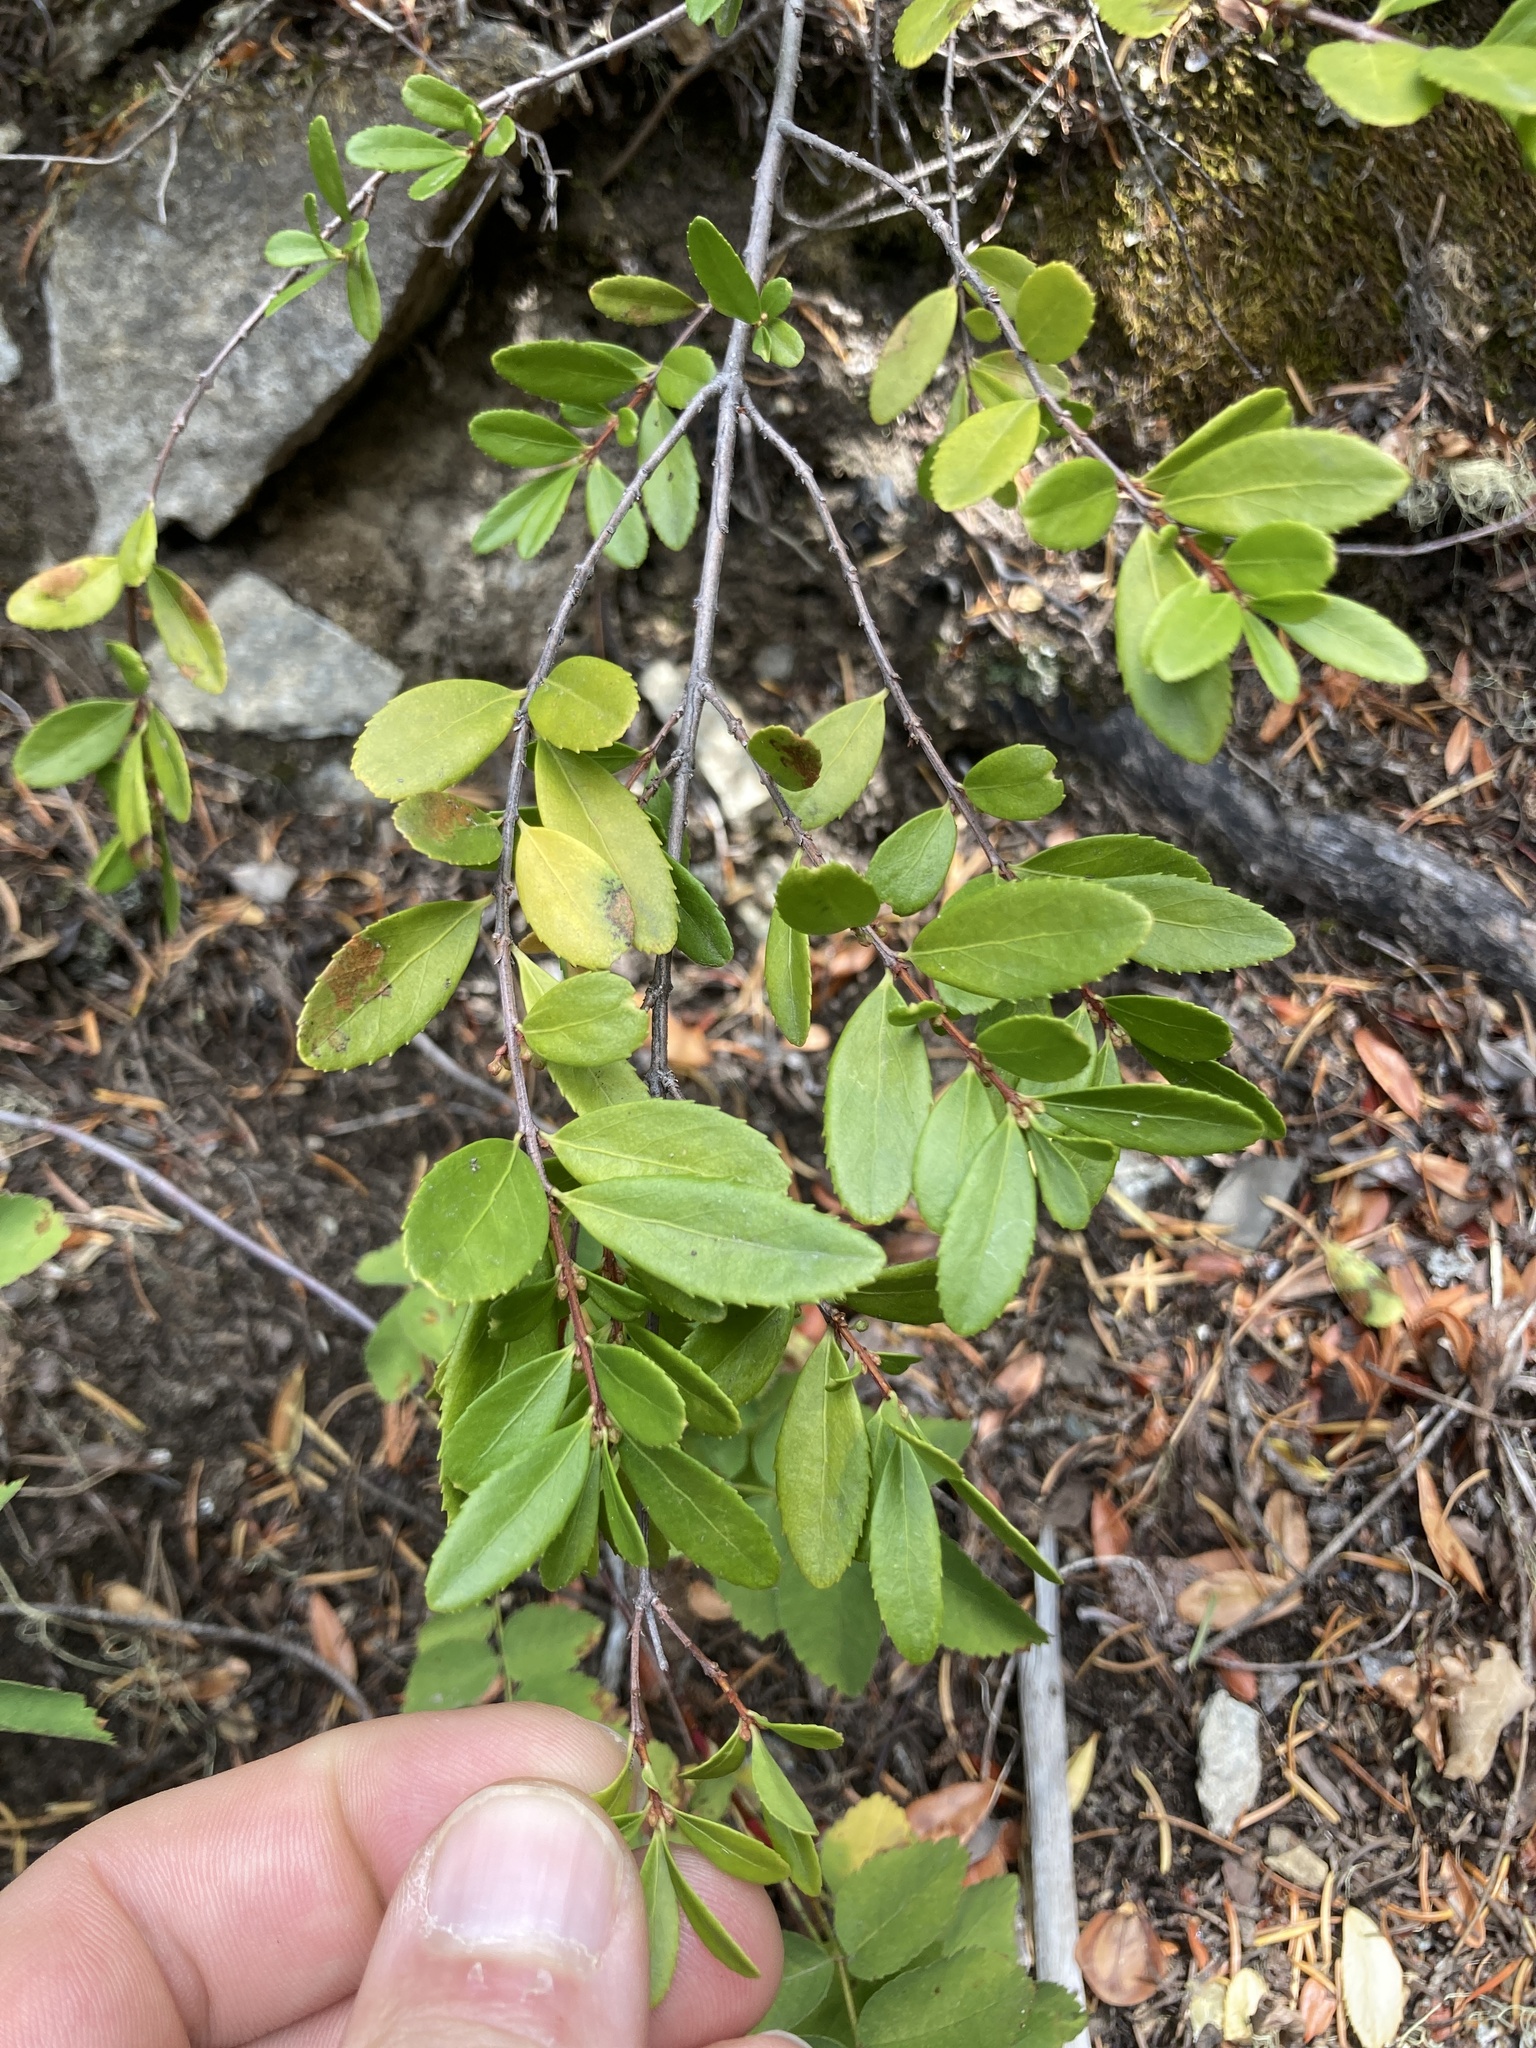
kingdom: Plantae
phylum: Tracheophyta
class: Magnoliopsida
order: Celastrales
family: Celastraceae
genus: Paxistima
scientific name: Paxistima myrsinites
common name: Mountain-lover
